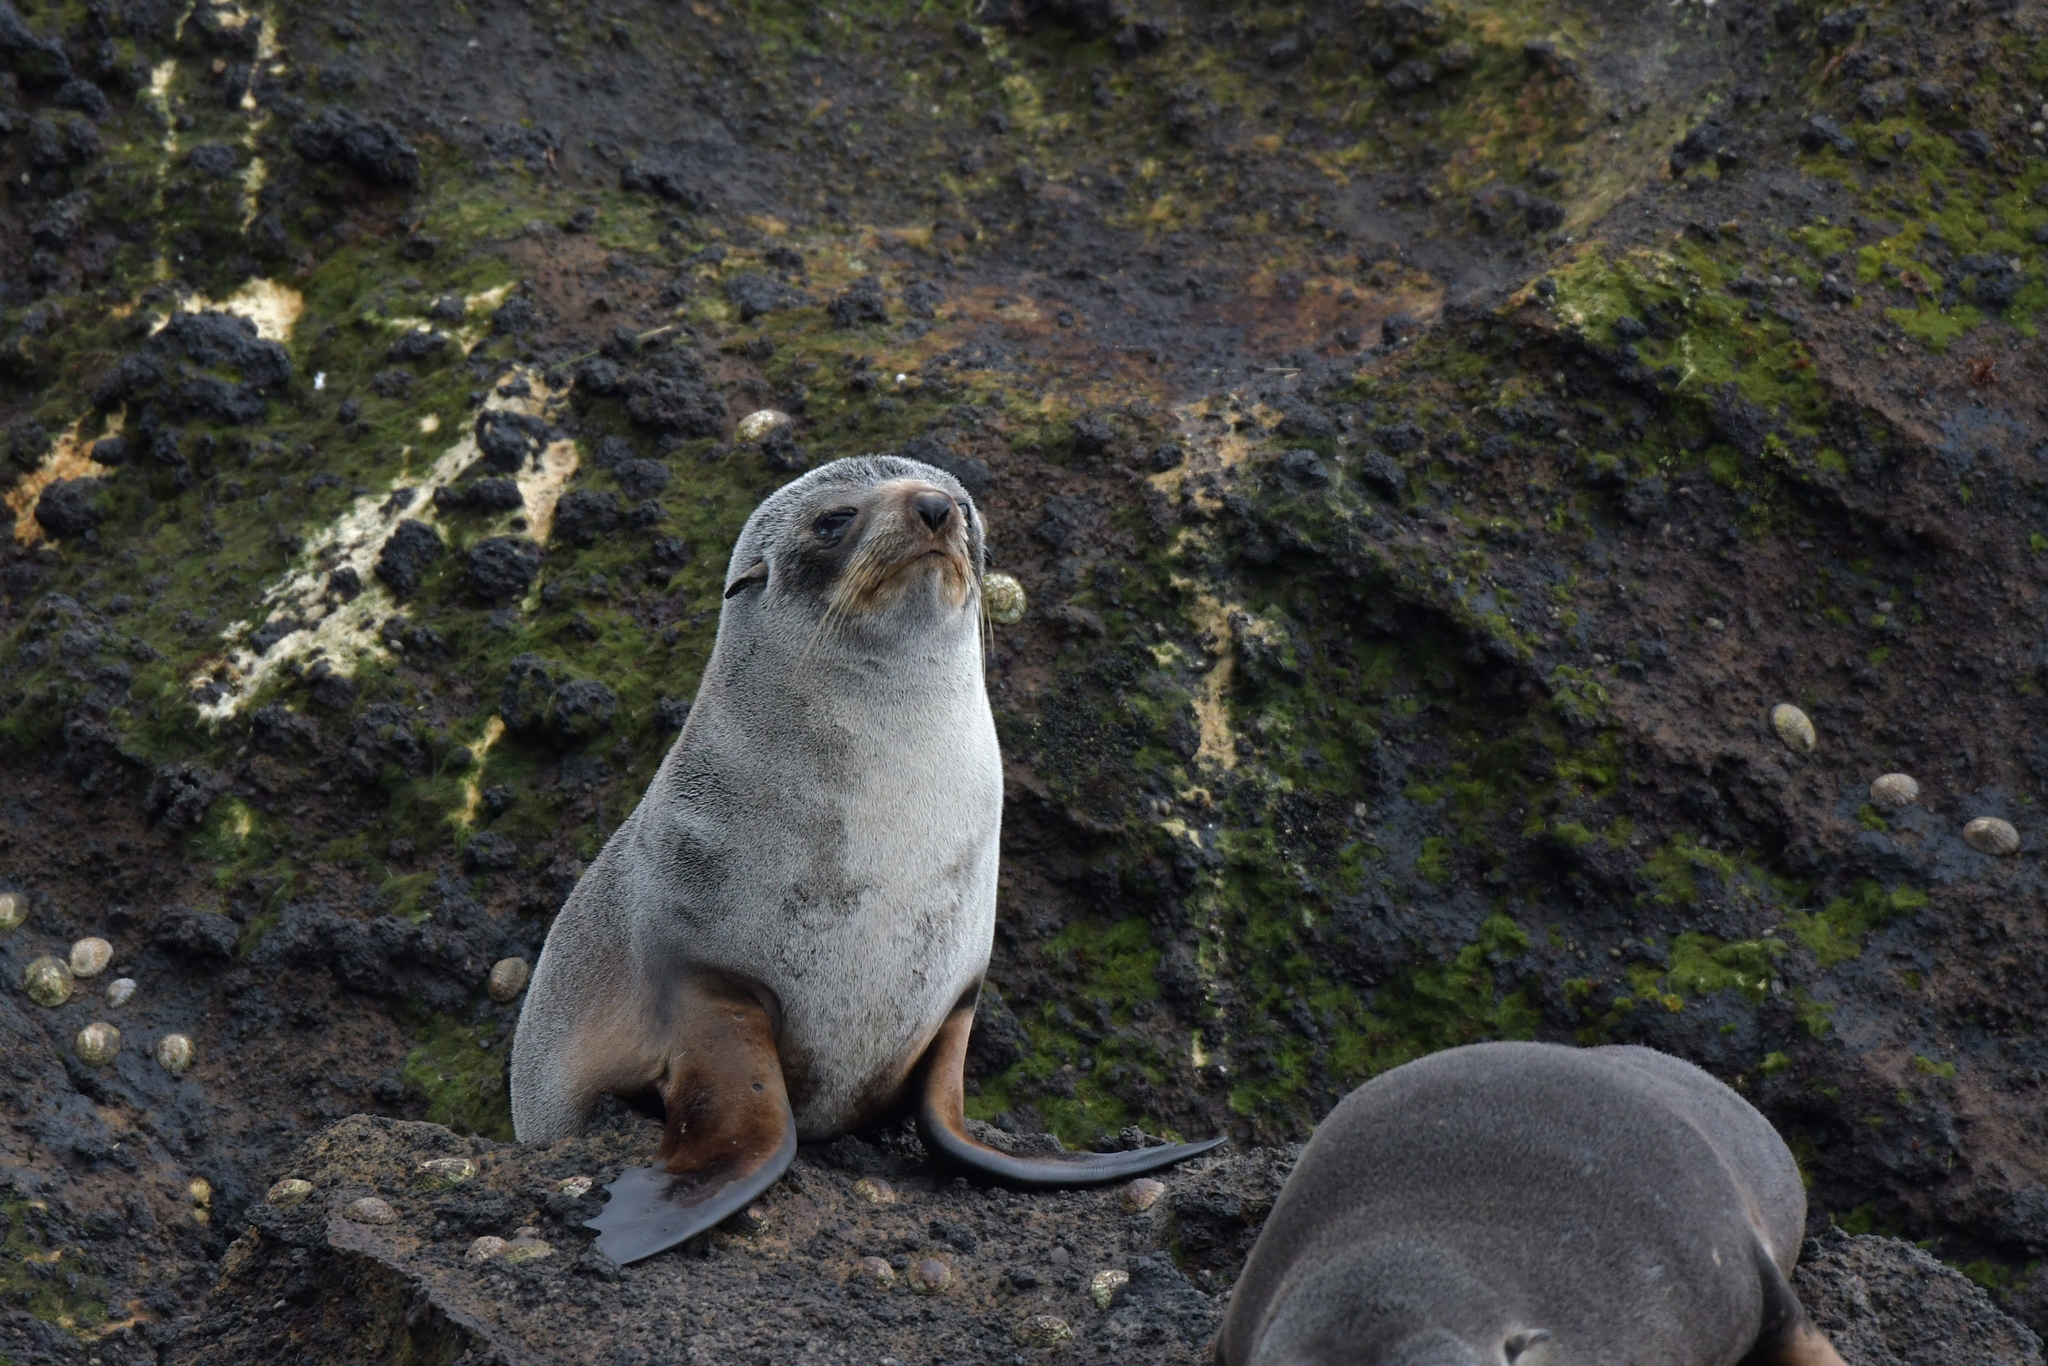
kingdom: Animalia
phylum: Chordata
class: Mammalia
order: Carnivora
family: Otariidae
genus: Arctocephalus
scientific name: Arctocephalus tropicalis
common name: Subantarctic fur seal
